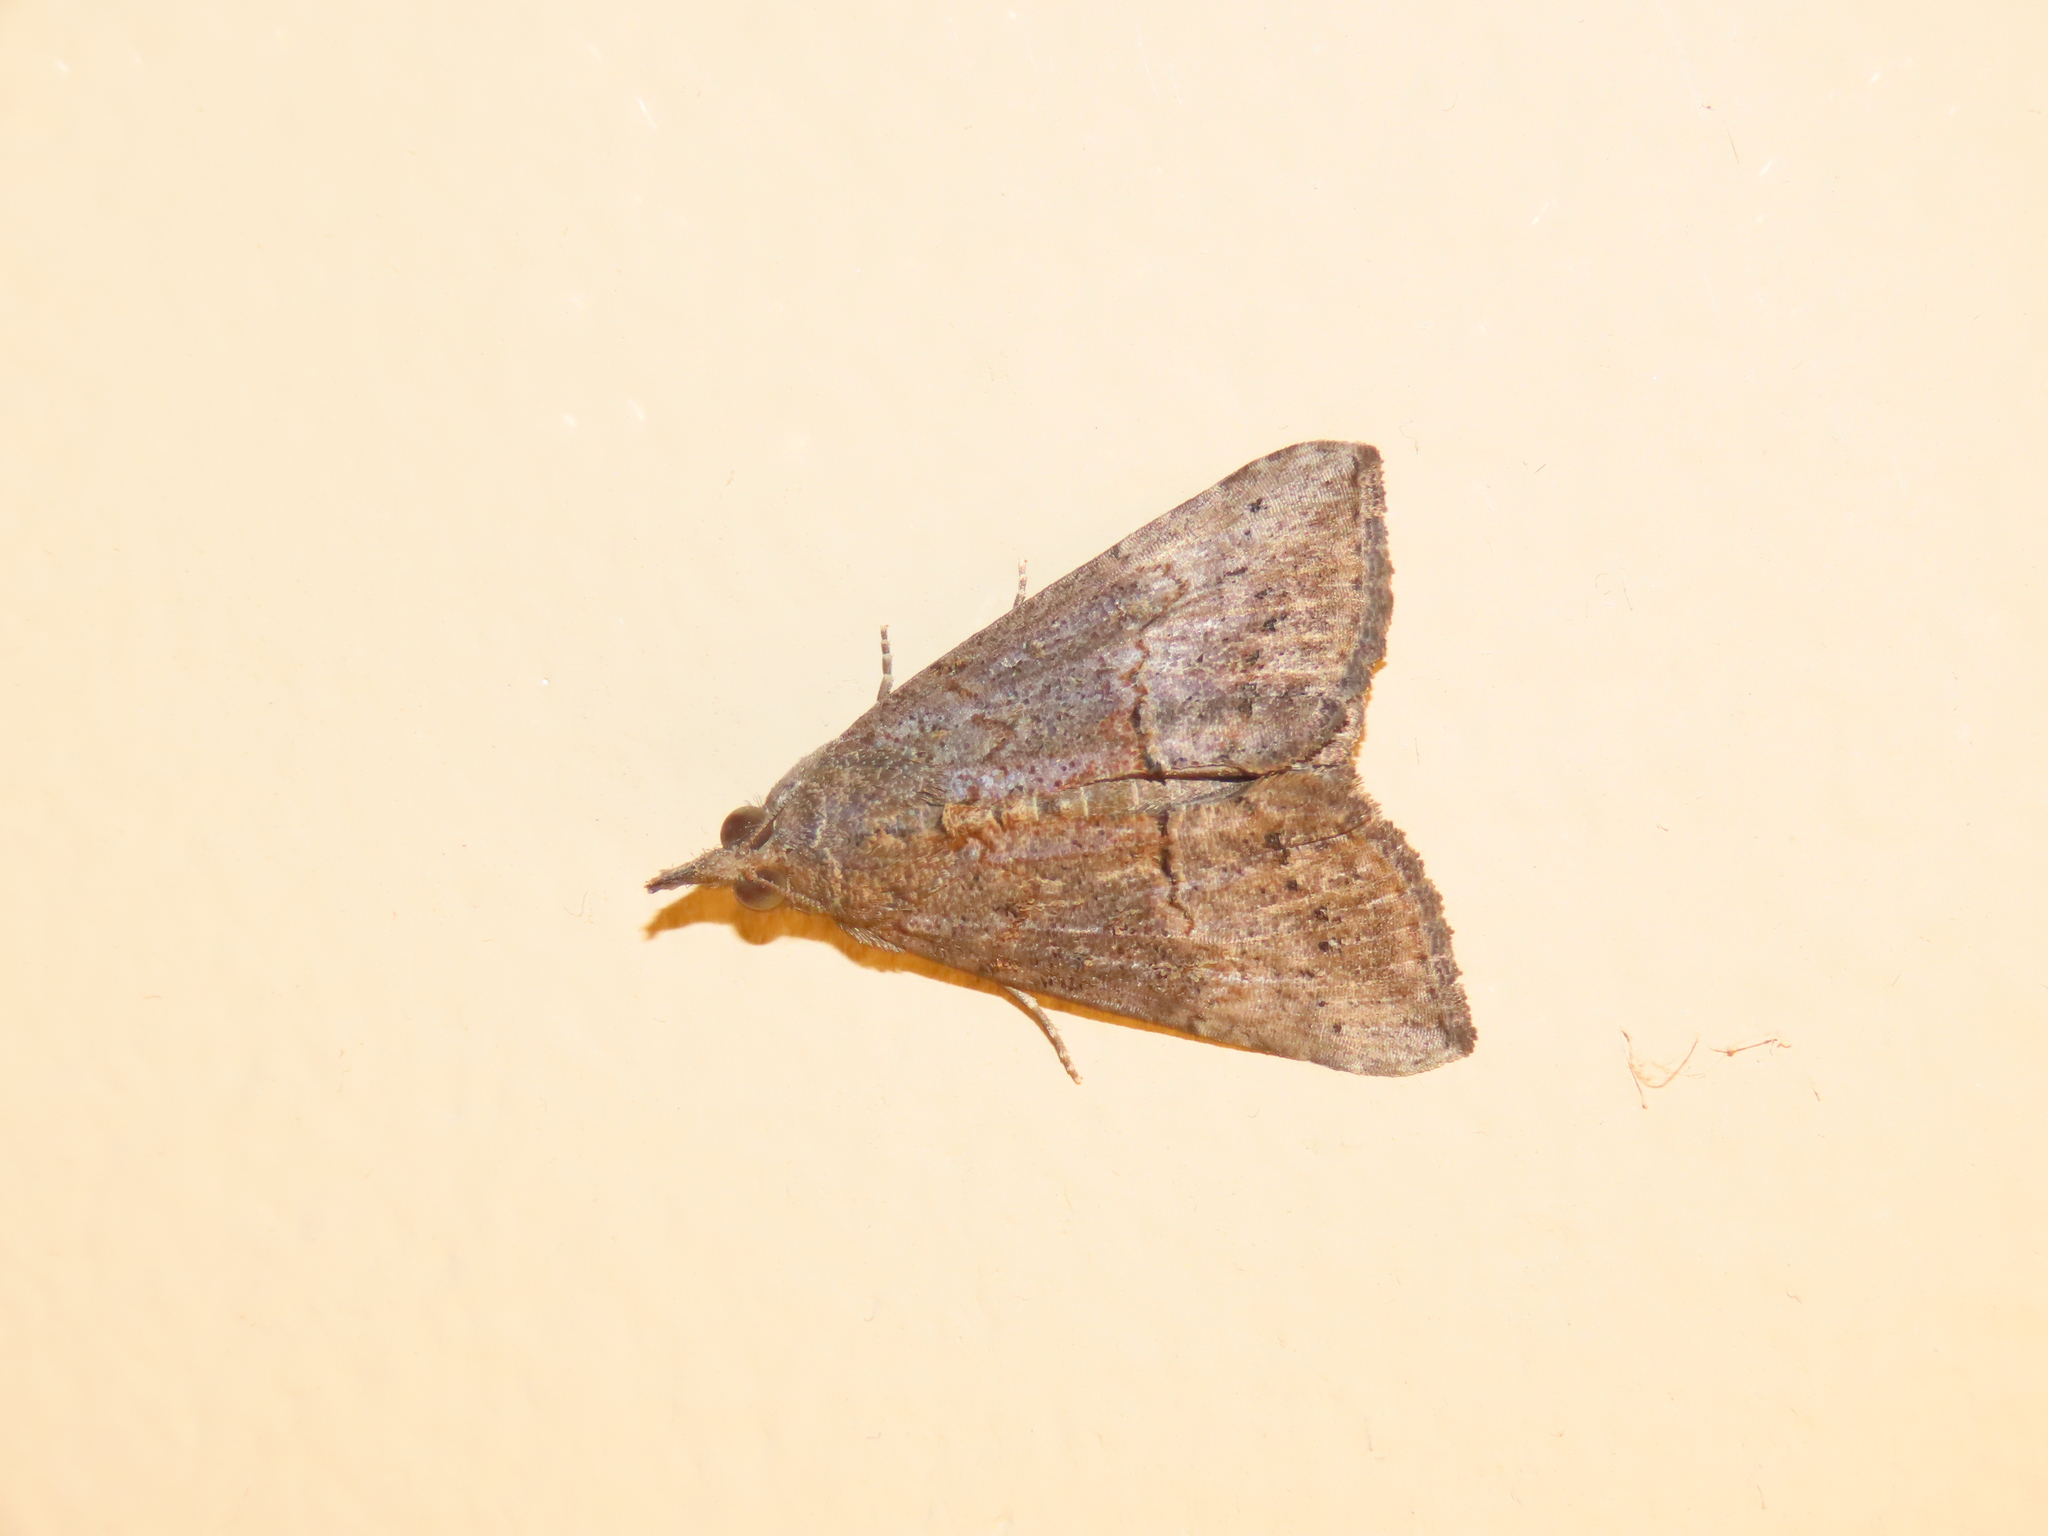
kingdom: Animalia
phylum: Arthropoda
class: Insecta
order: Lepidoptera
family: Erebidae
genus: Hypena
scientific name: Hypena scabra
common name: Green cloverworm
